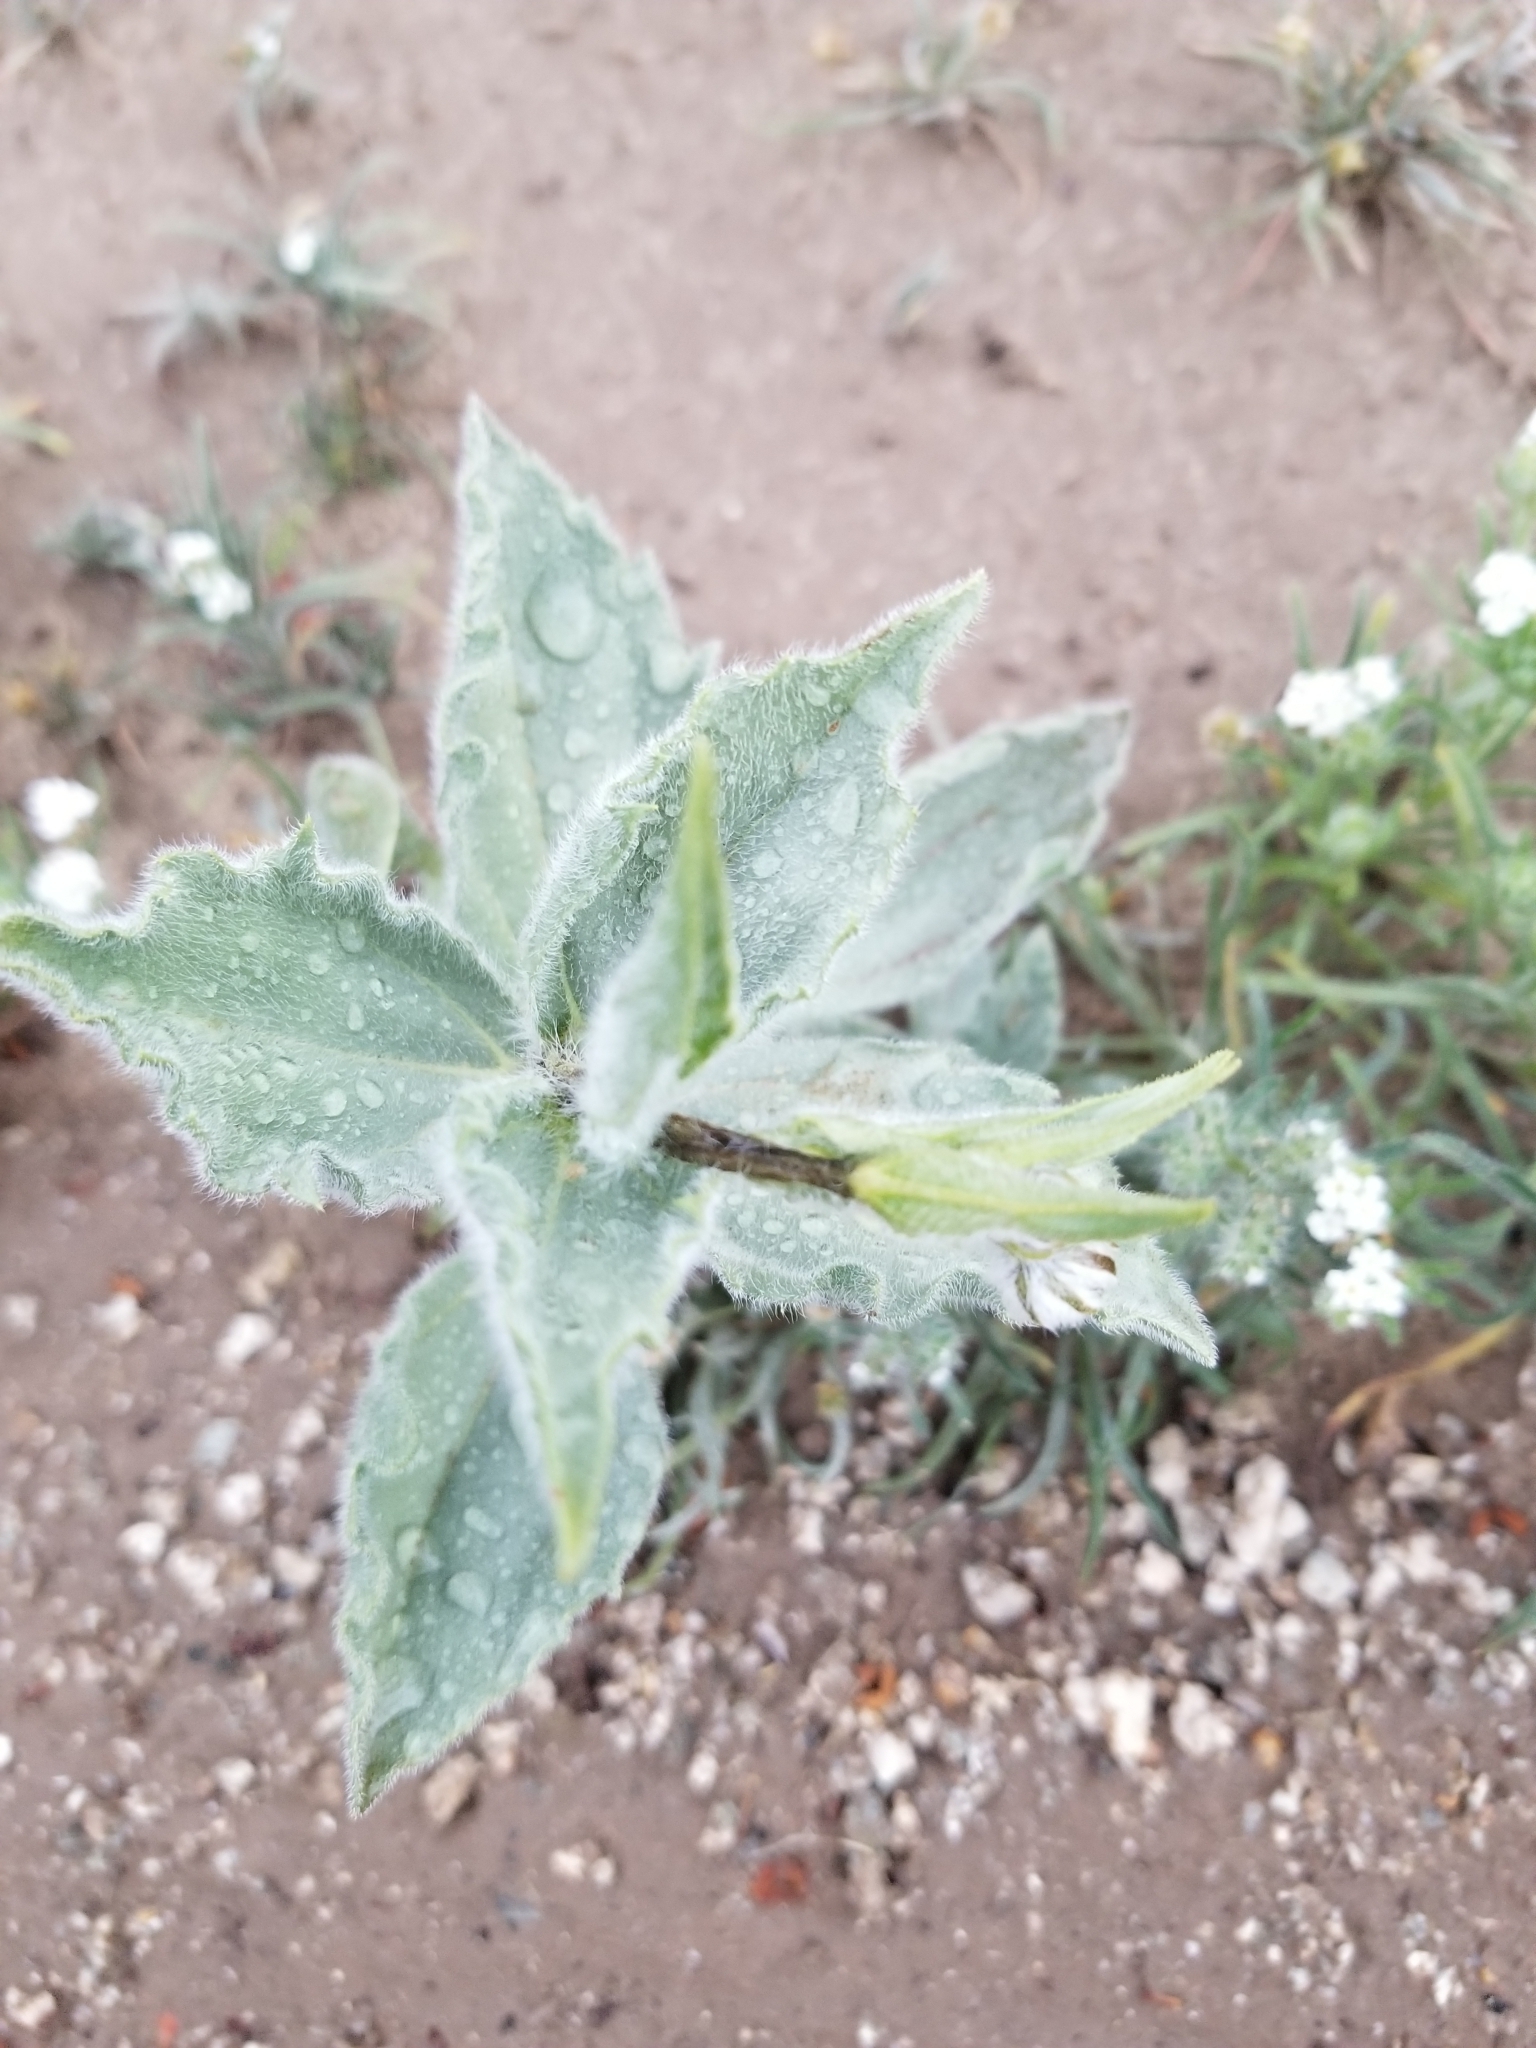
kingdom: Plantae
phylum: Tracheophyta
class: Magnoliopsida
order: Asterales
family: Asteraceae
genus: Geraea
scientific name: Geraea canescens
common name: Desert-gold
